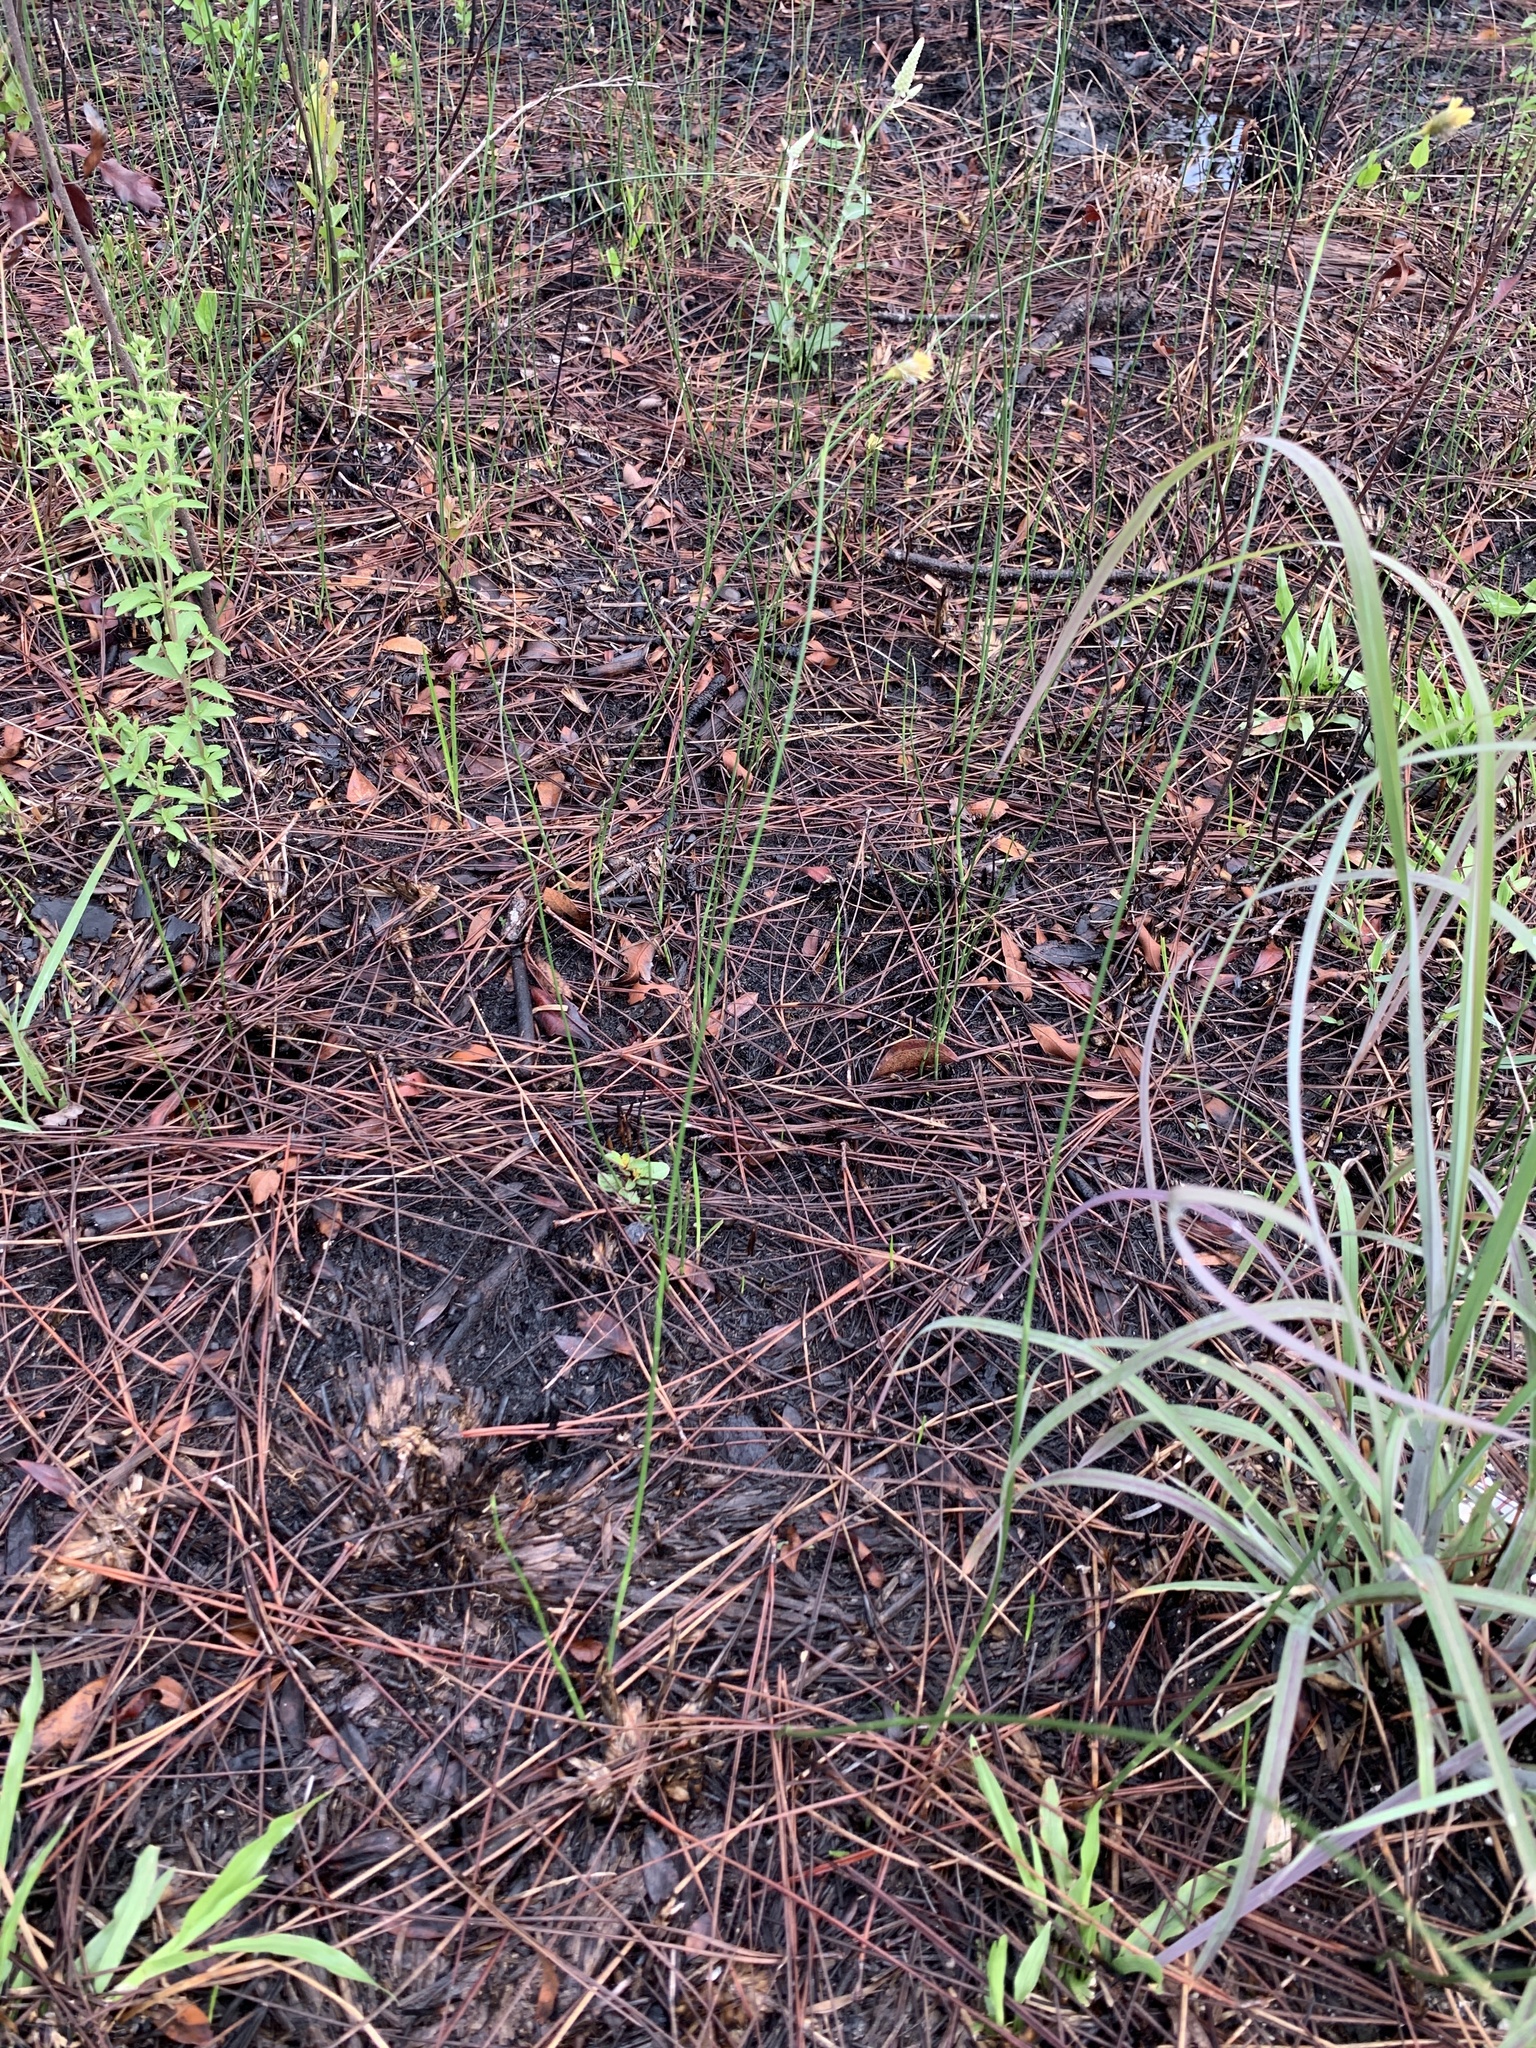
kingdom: Plantae
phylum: Tracheophyta
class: Liliopsida
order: Poales
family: Cyperaceae
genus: Fuirena
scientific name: Fuirena scirpoidea
